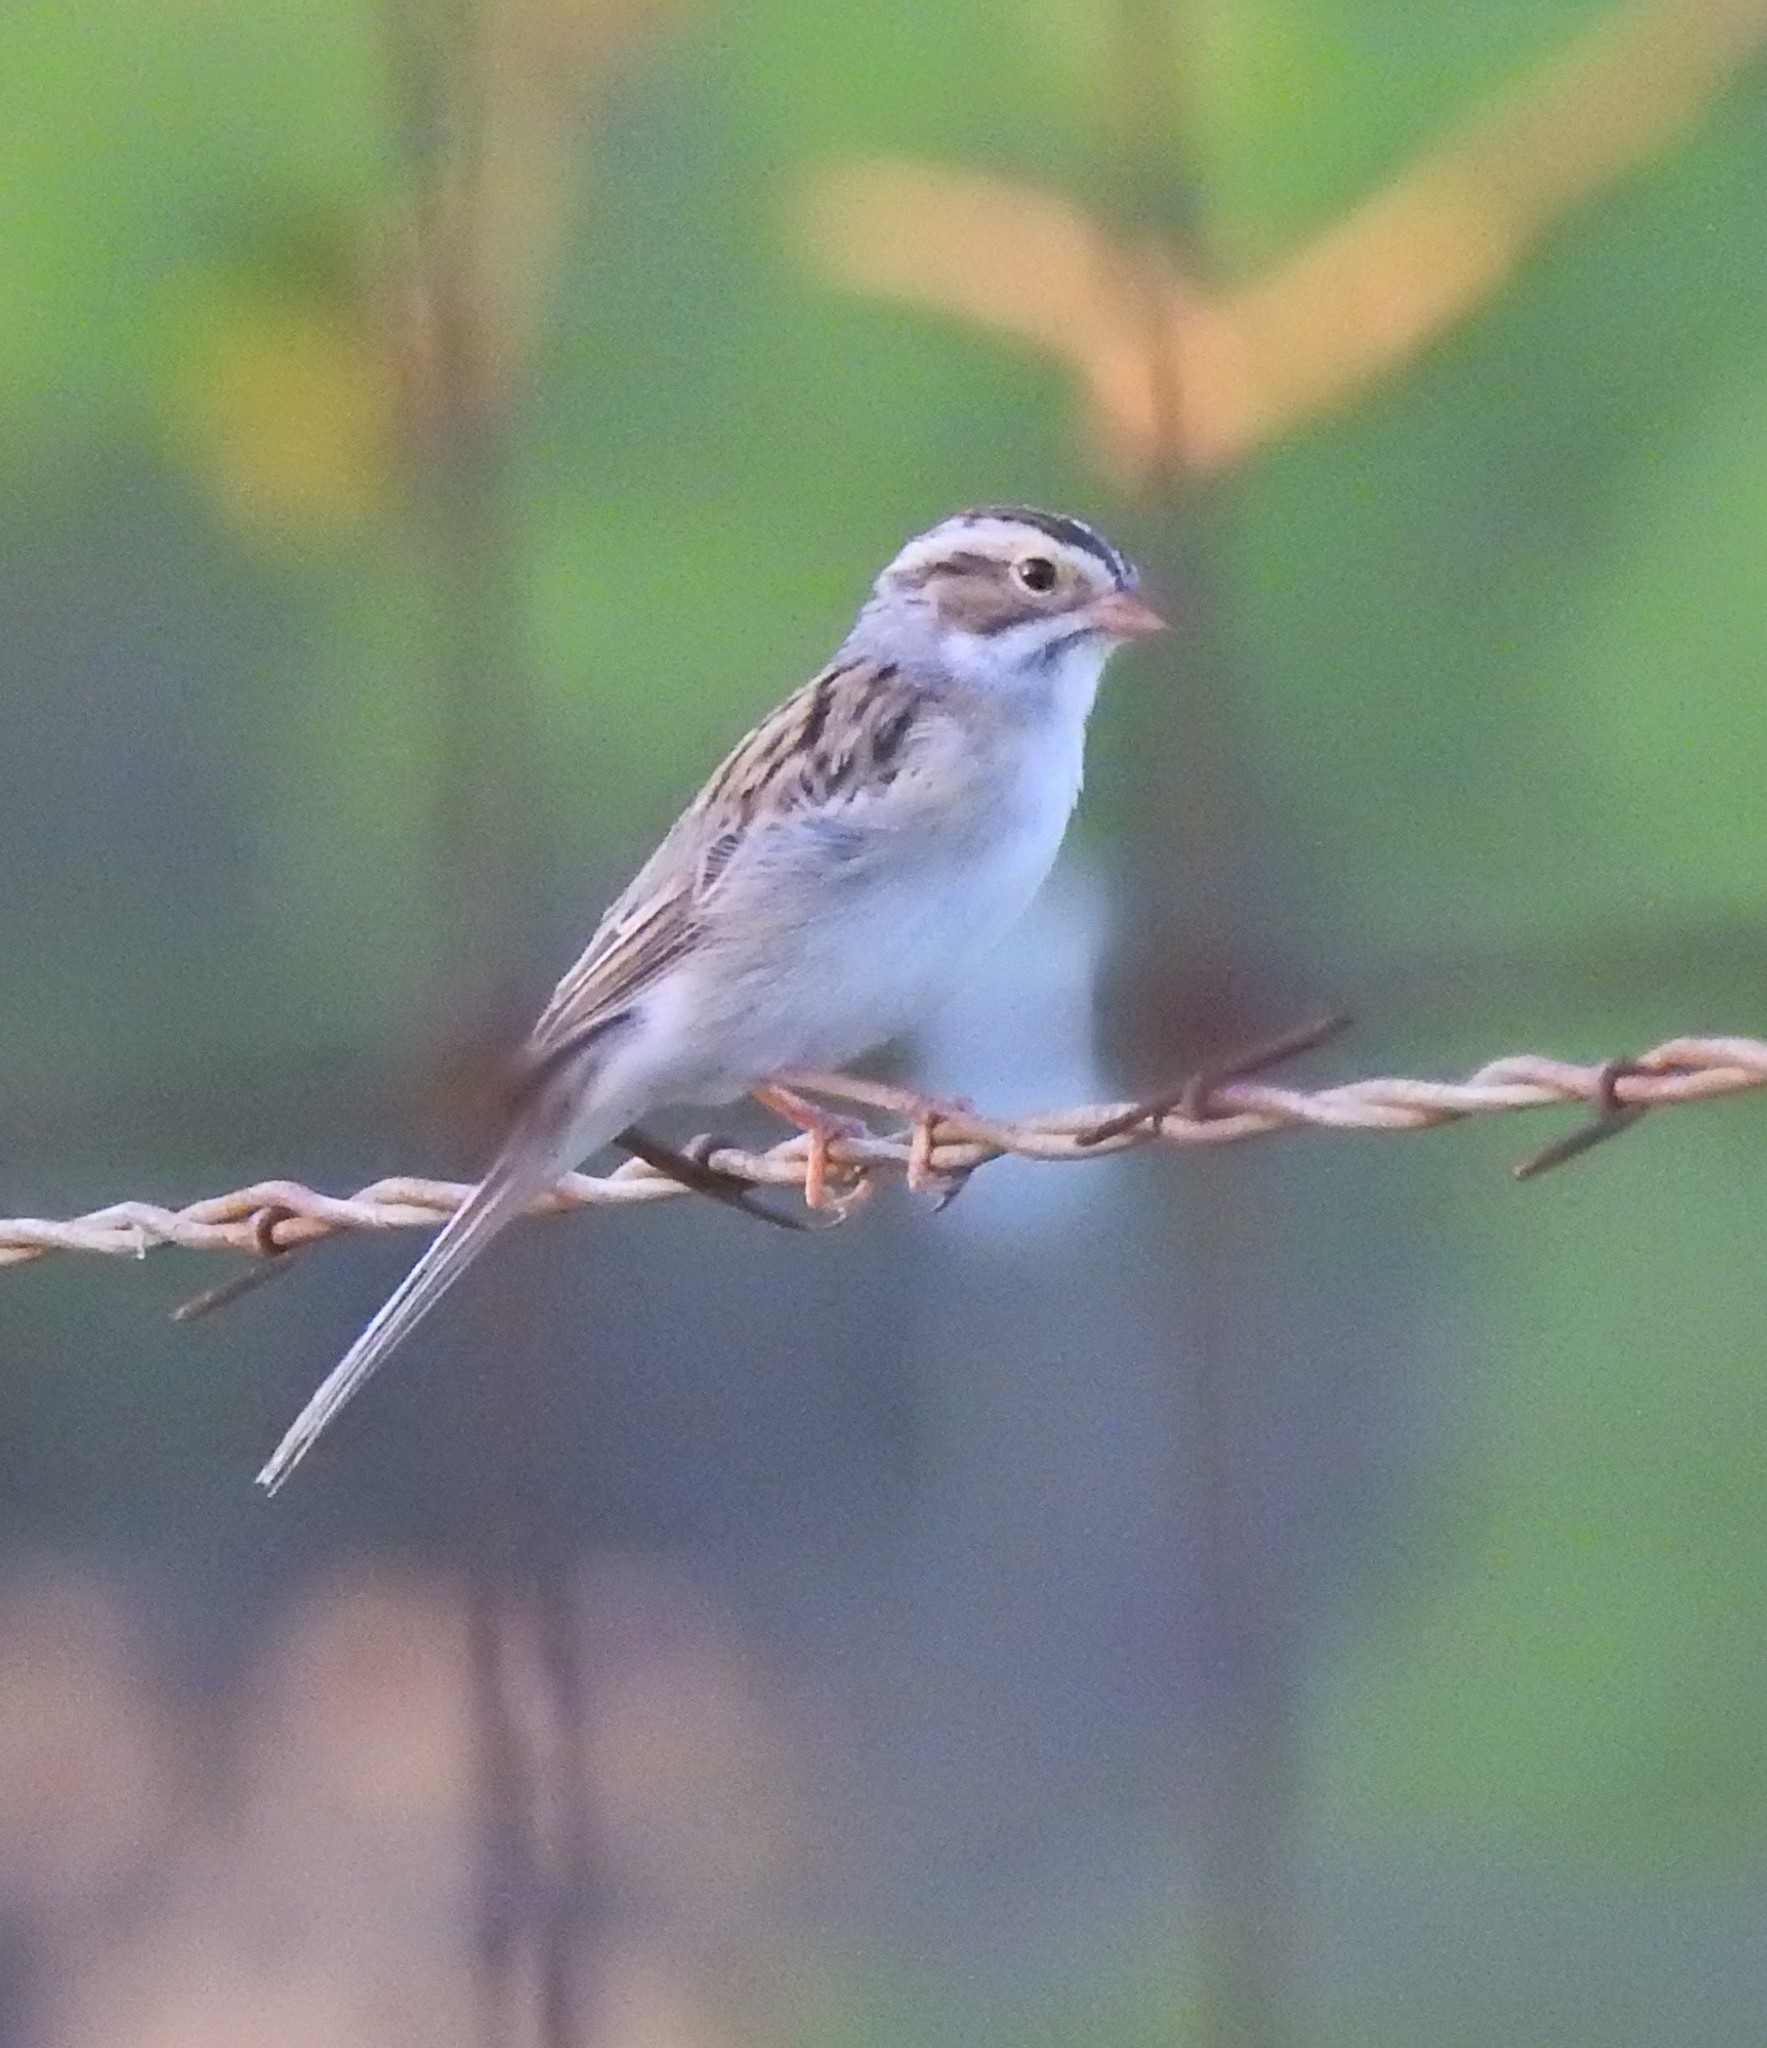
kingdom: Animalia
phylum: Chordata
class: Aves
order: Passeriformes
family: Passerellidae
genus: Spizella
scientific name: Spizella pallida
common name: Clay-colored sparrow
